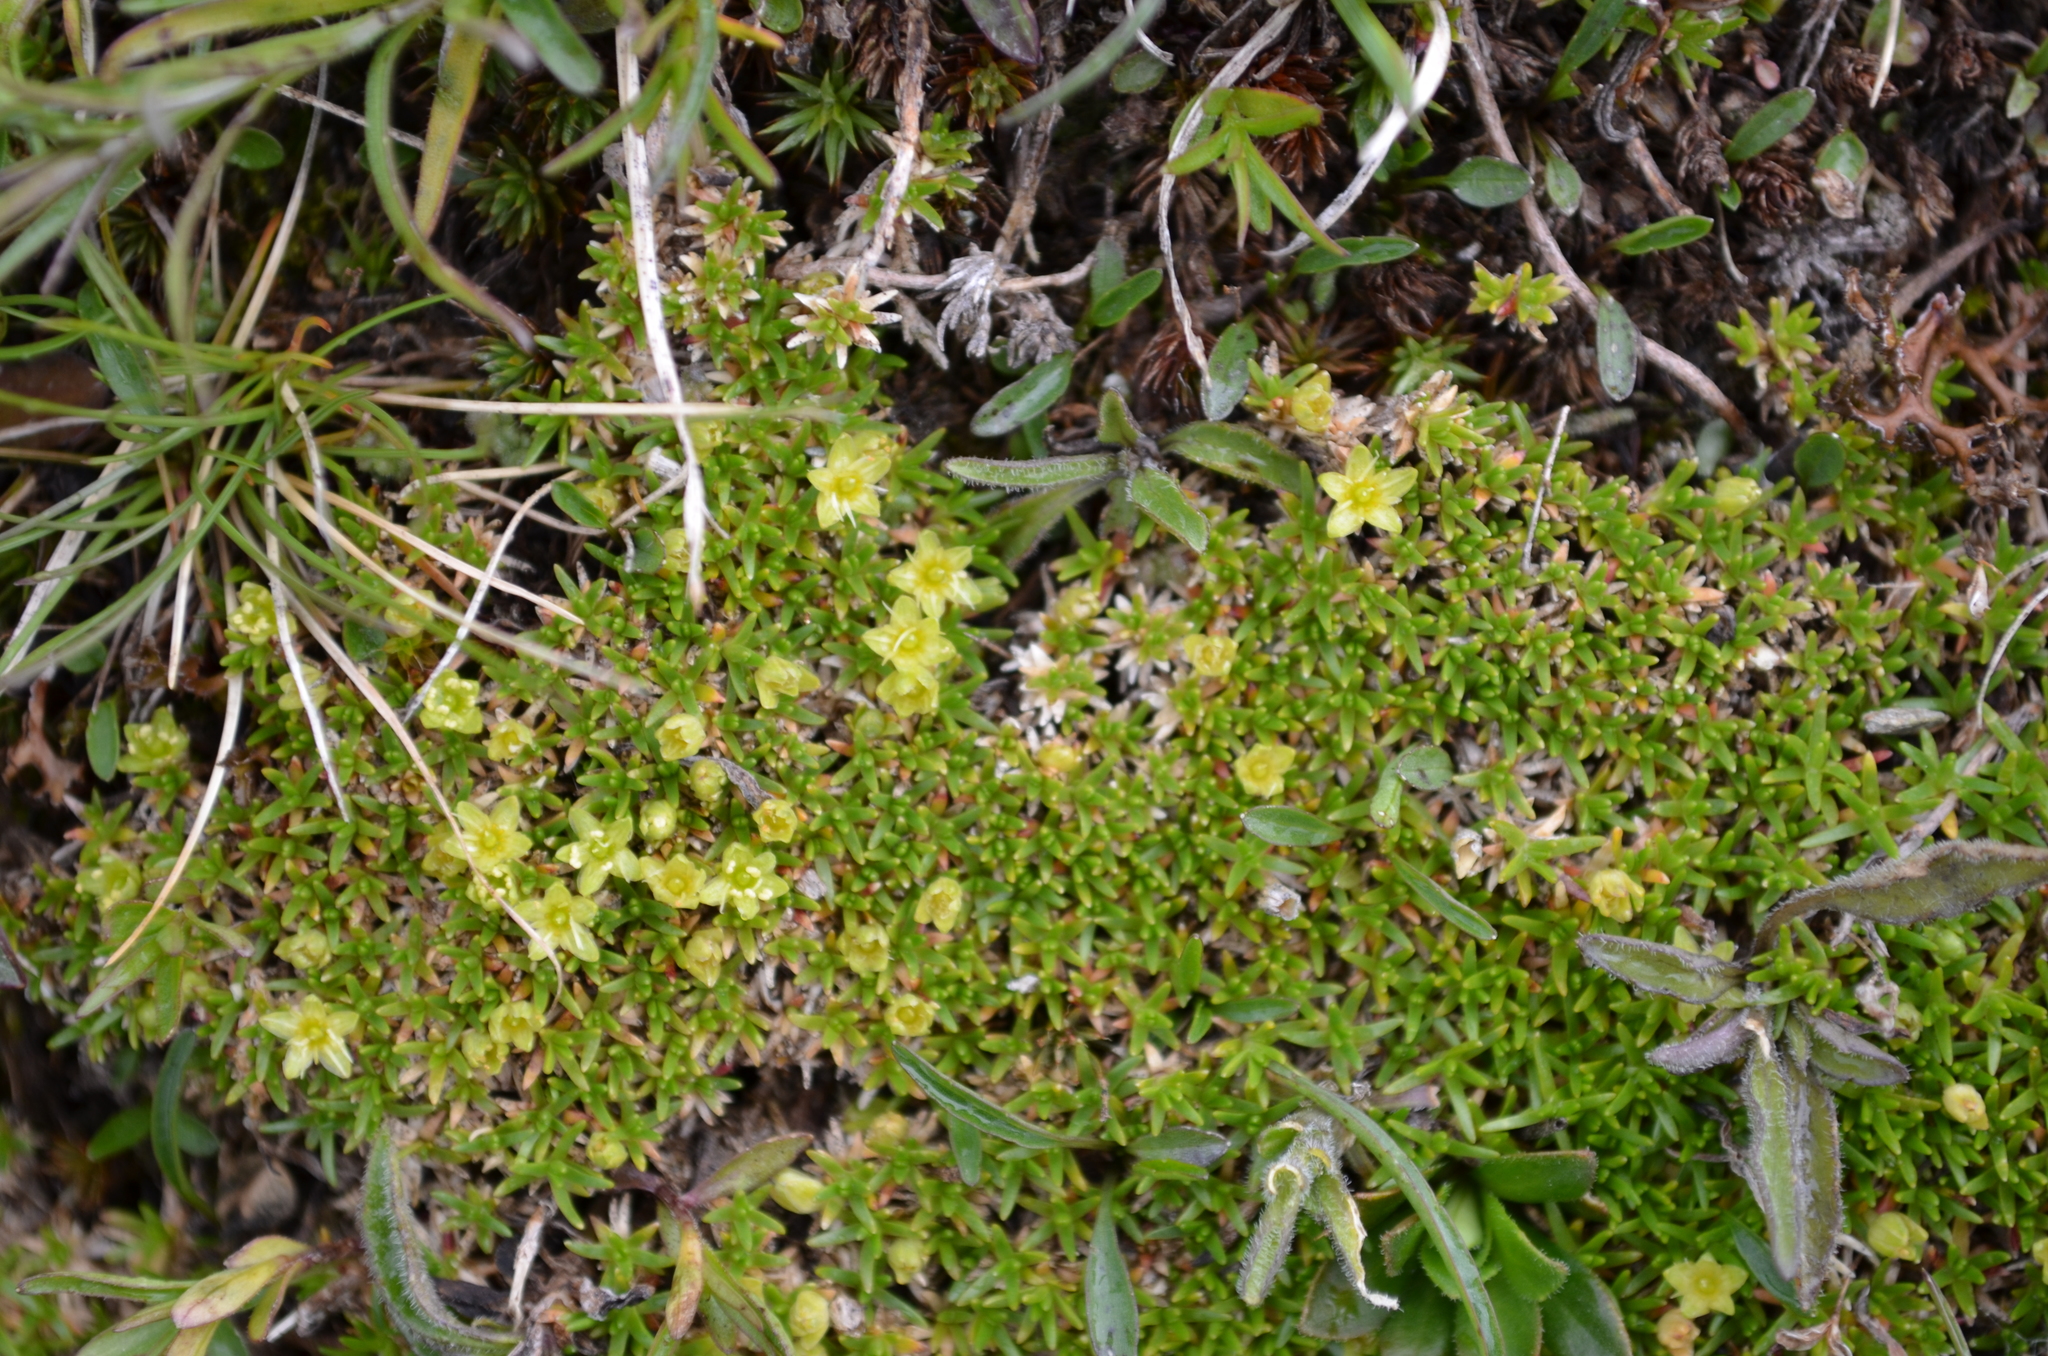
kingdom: Plantae
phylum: Tracheophyta
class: Magnoliopsida
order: Caryophyllales
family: Caryophyllaceae
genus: Cherleria
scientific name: Cherleria sedoides
